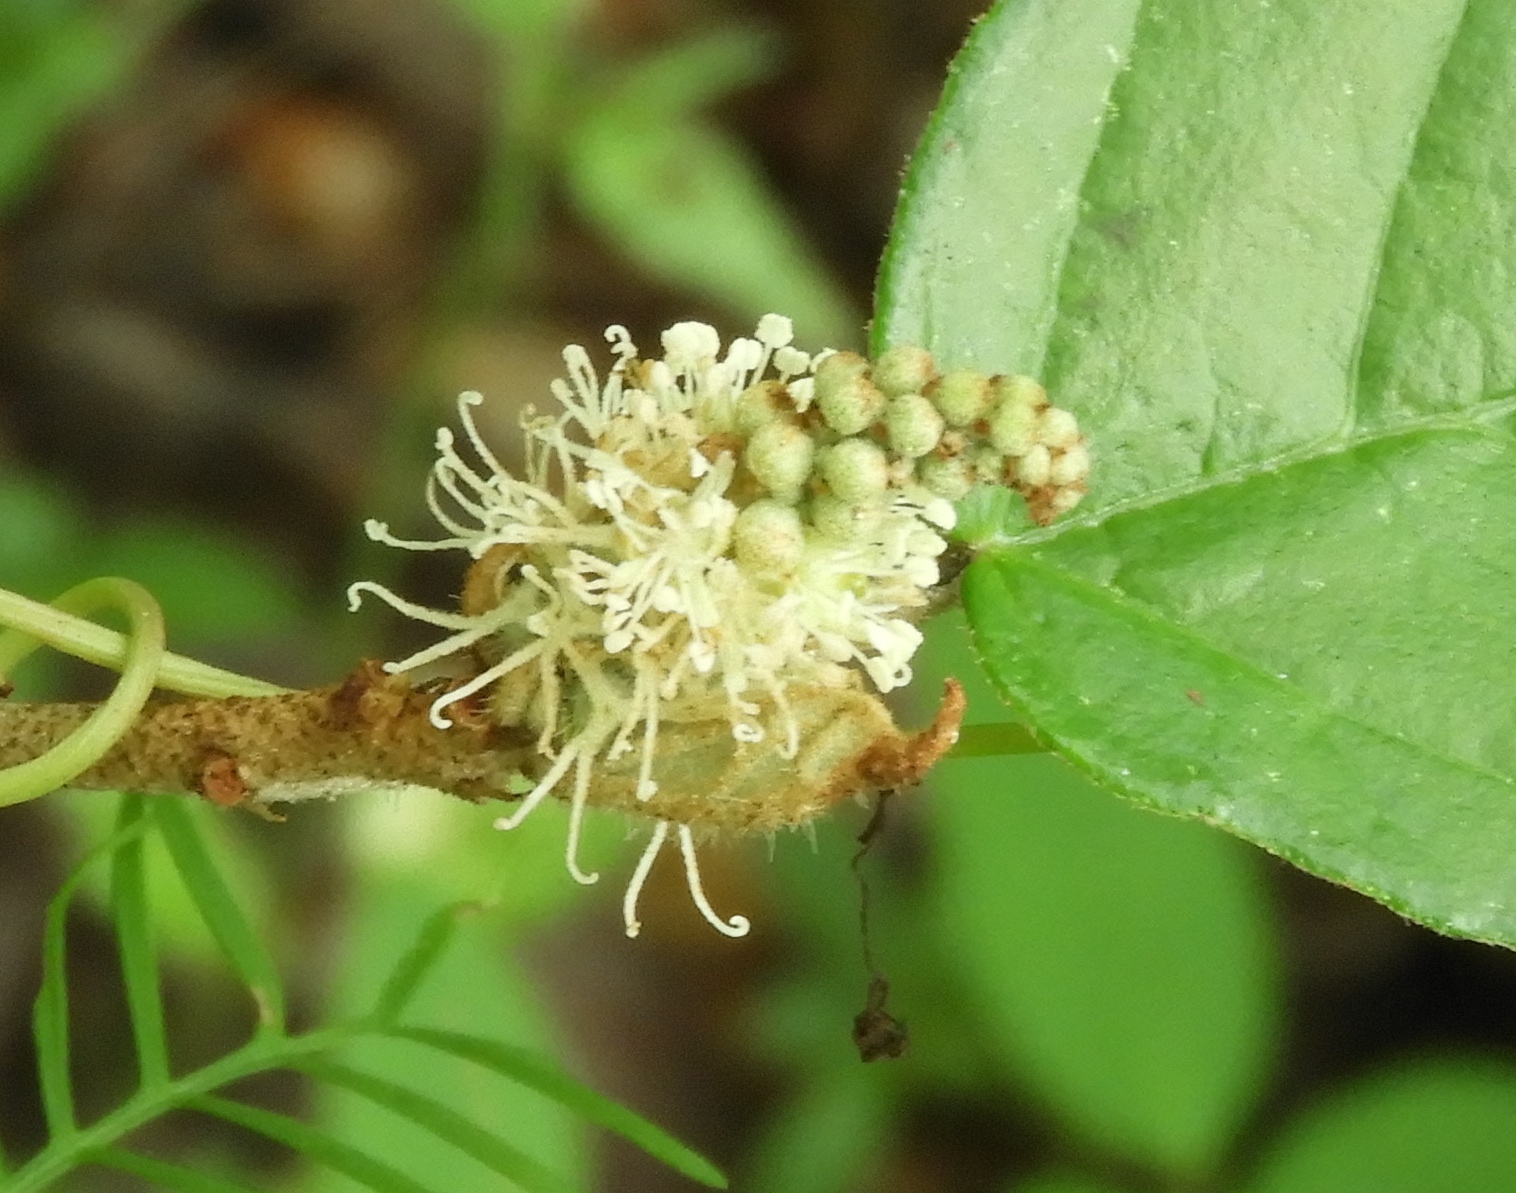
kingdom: Plantae
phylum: Tracheophyta
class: Magnoliopsida
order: Malpighiales
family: Euphorbiaceae
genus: Croton
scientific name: Croton cortesianus
